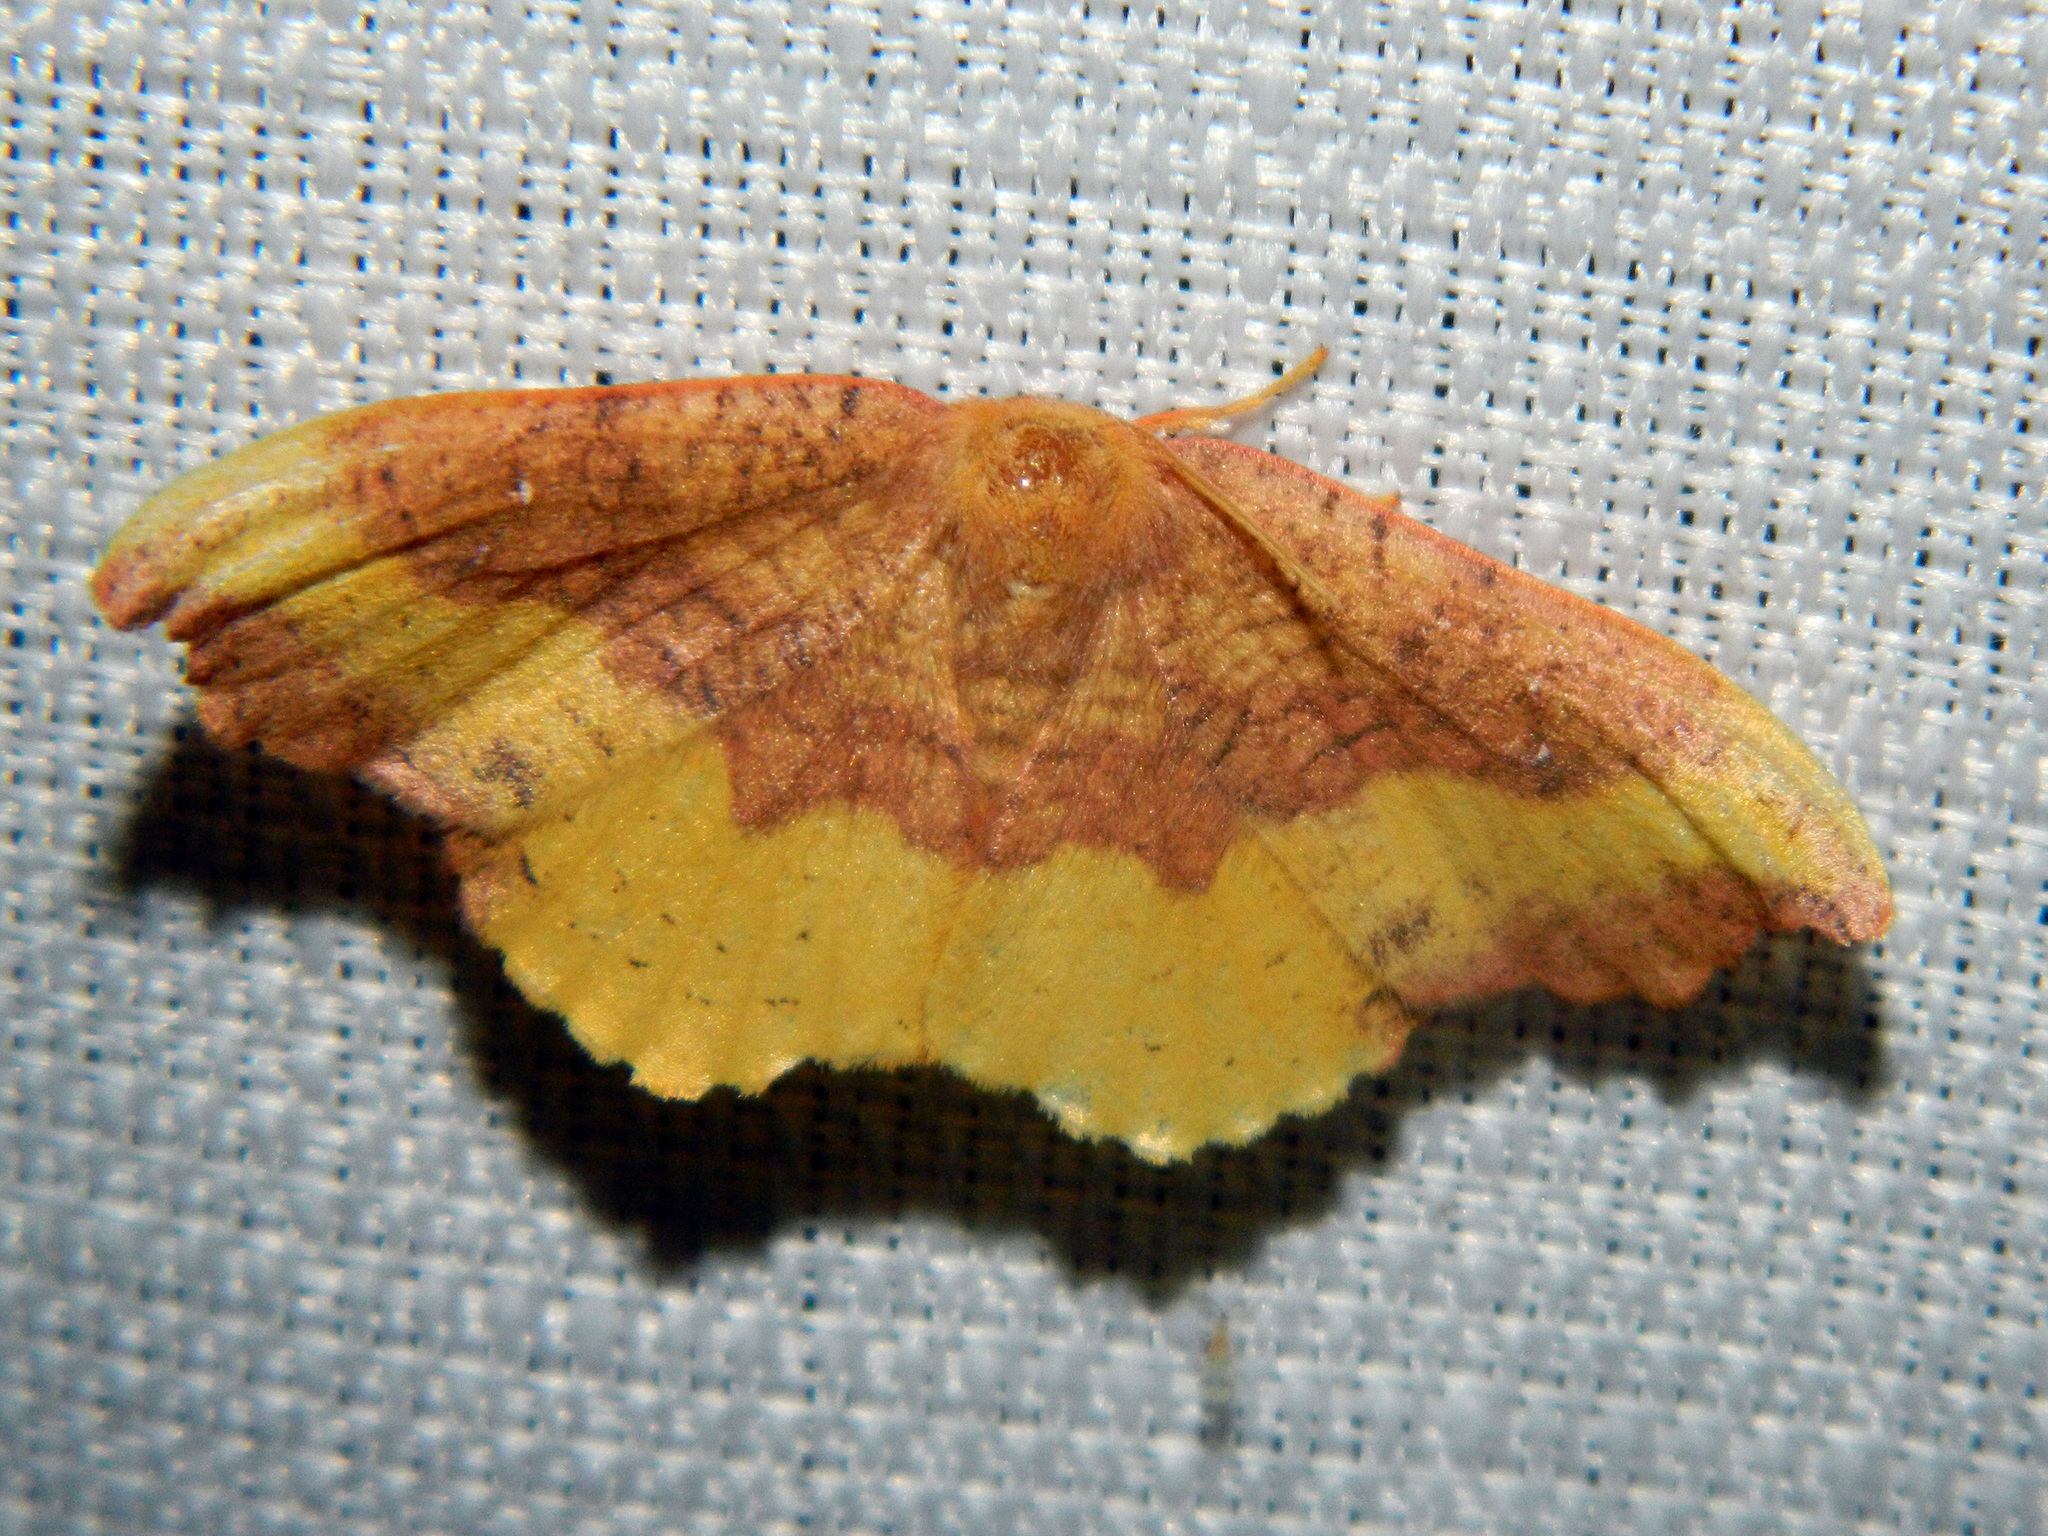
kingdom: Animalia
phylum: Arthropoda
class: Insecta
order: Lepidoptera
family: Drepanidae
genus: Oreta
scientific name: Oreta rosea
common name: Rose hooktip
